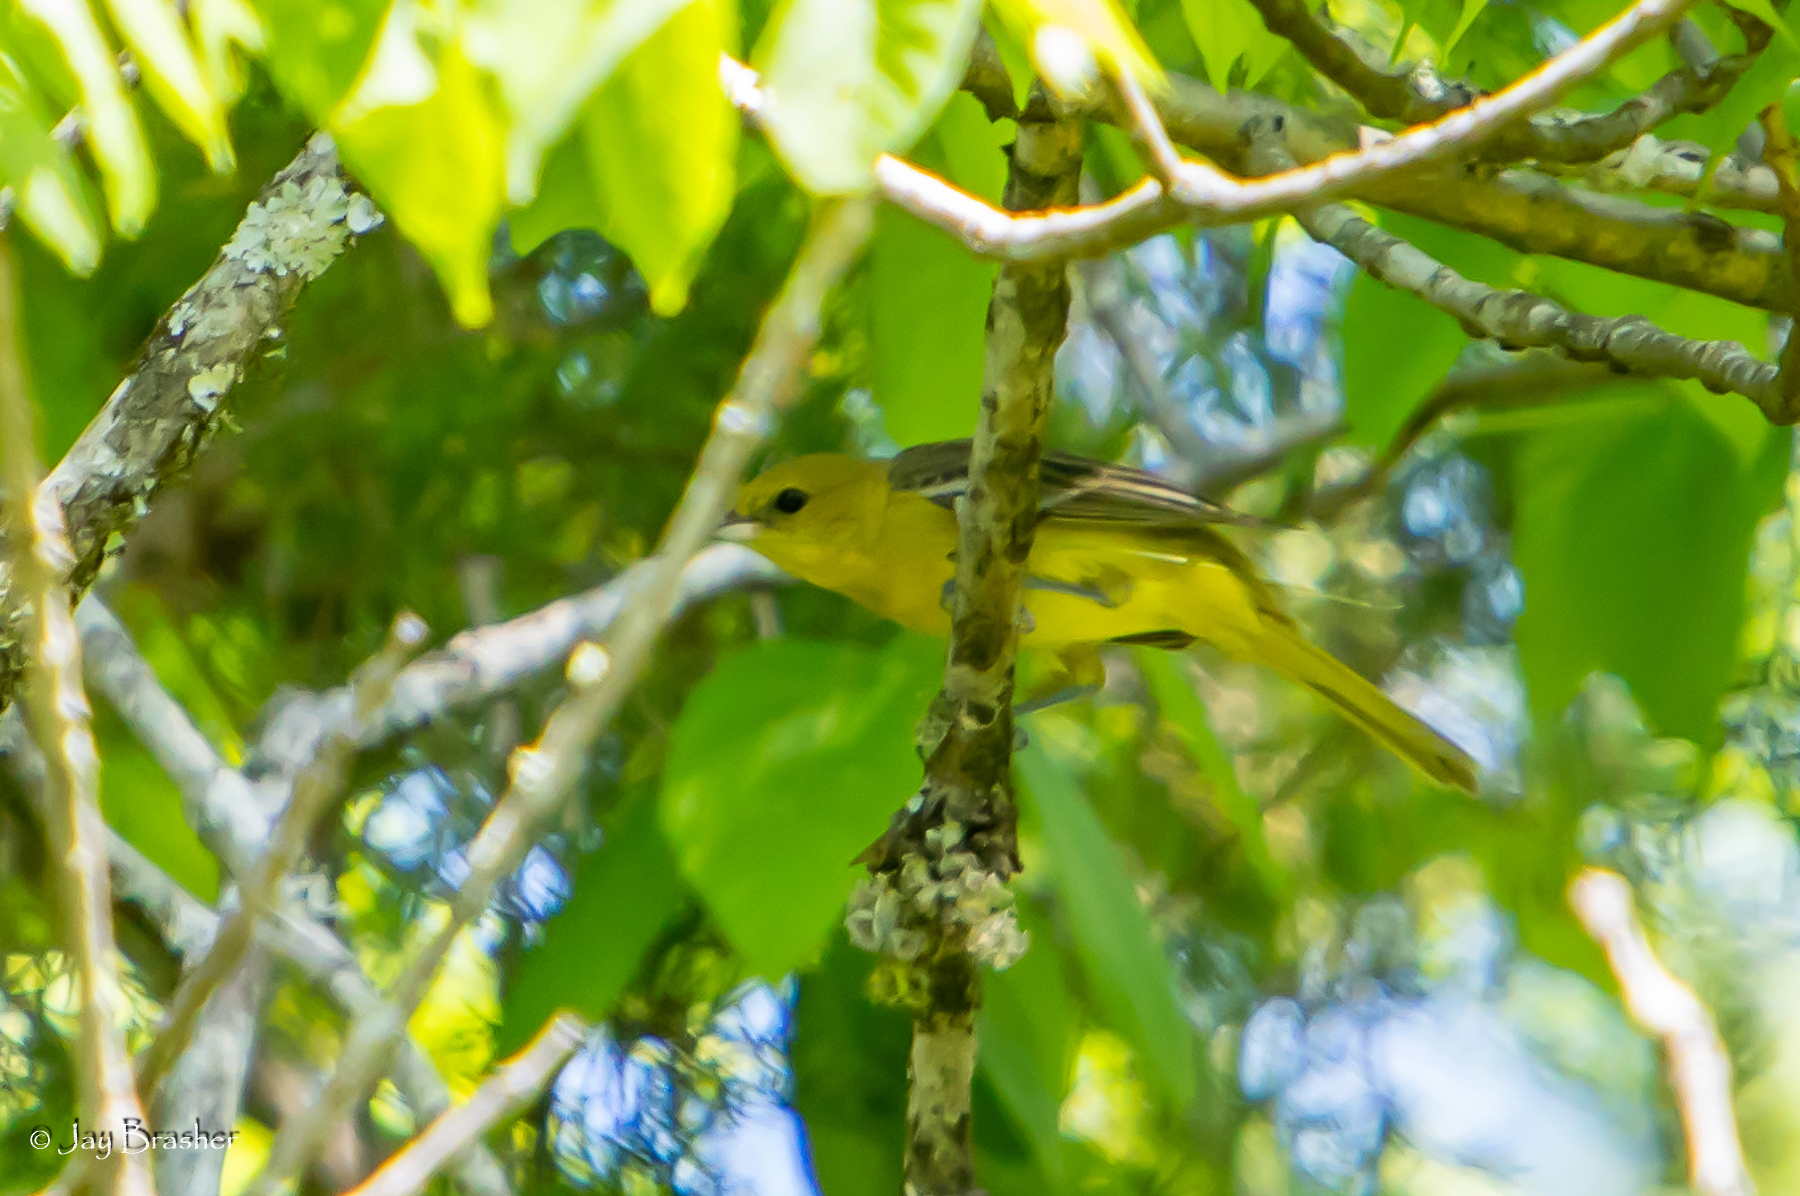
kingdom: Animalia
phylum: Chordata
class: Aves
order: Passeriformes
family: Icteridae
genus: Icterus
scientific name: Icterus spurius
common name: Orchard oriole
